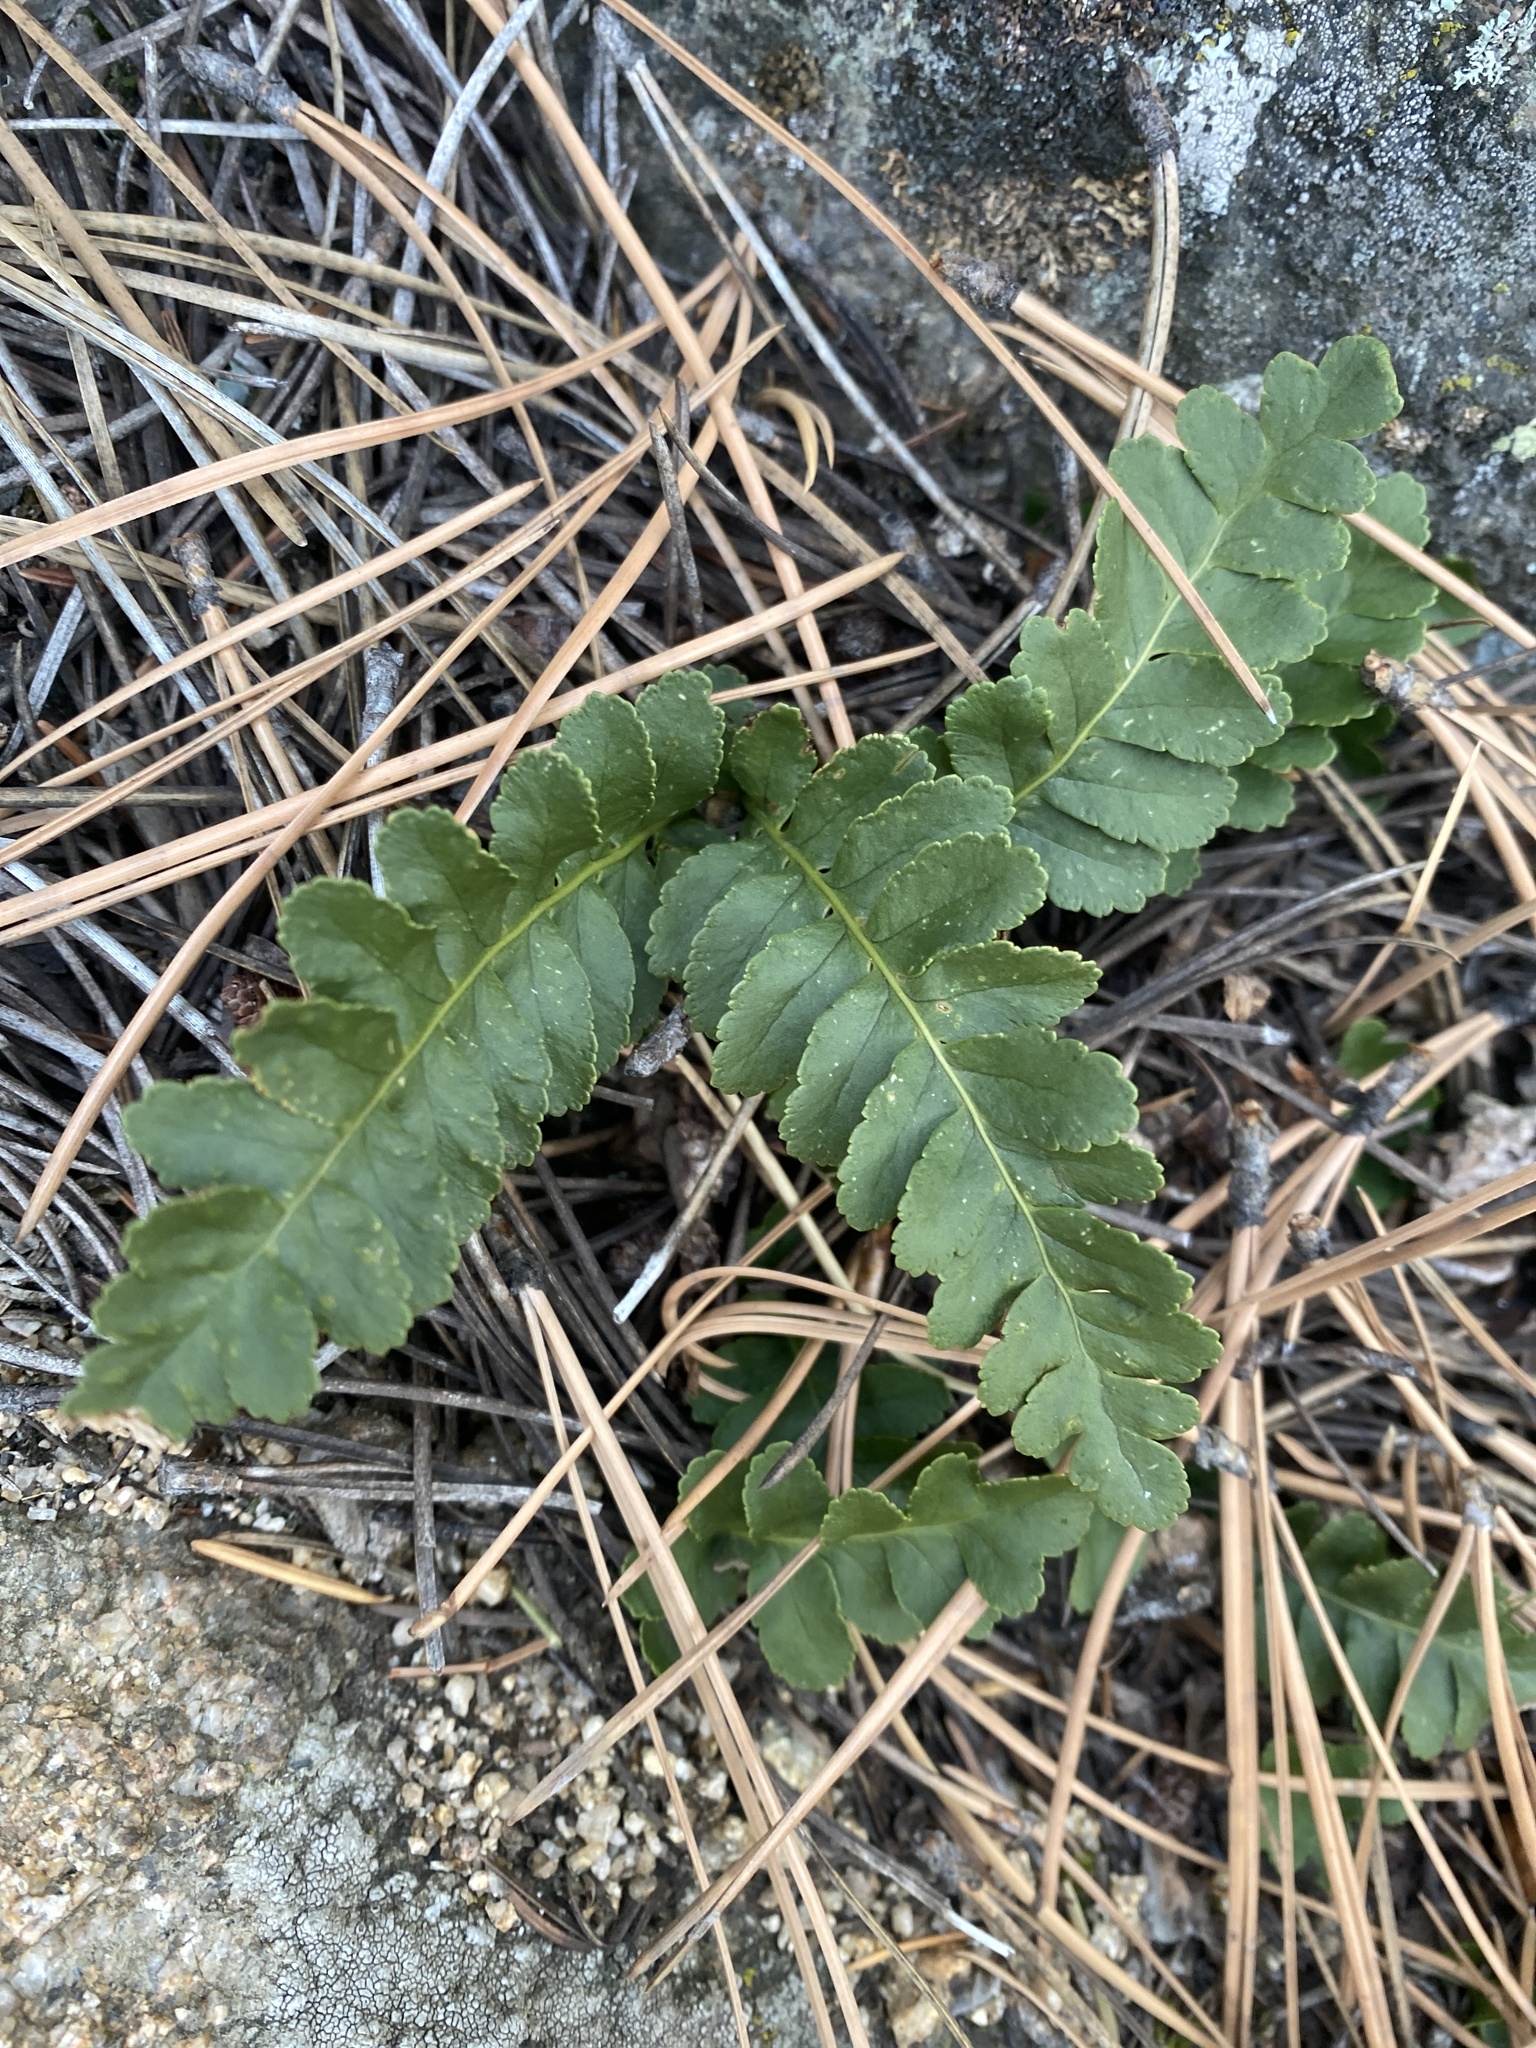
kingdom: Plantae
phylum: Tracheophyta
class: Polypodiopsida
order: Polypodiales
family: Polypodiaceae
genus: Polypodium
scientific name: Polypodium saximontanum
